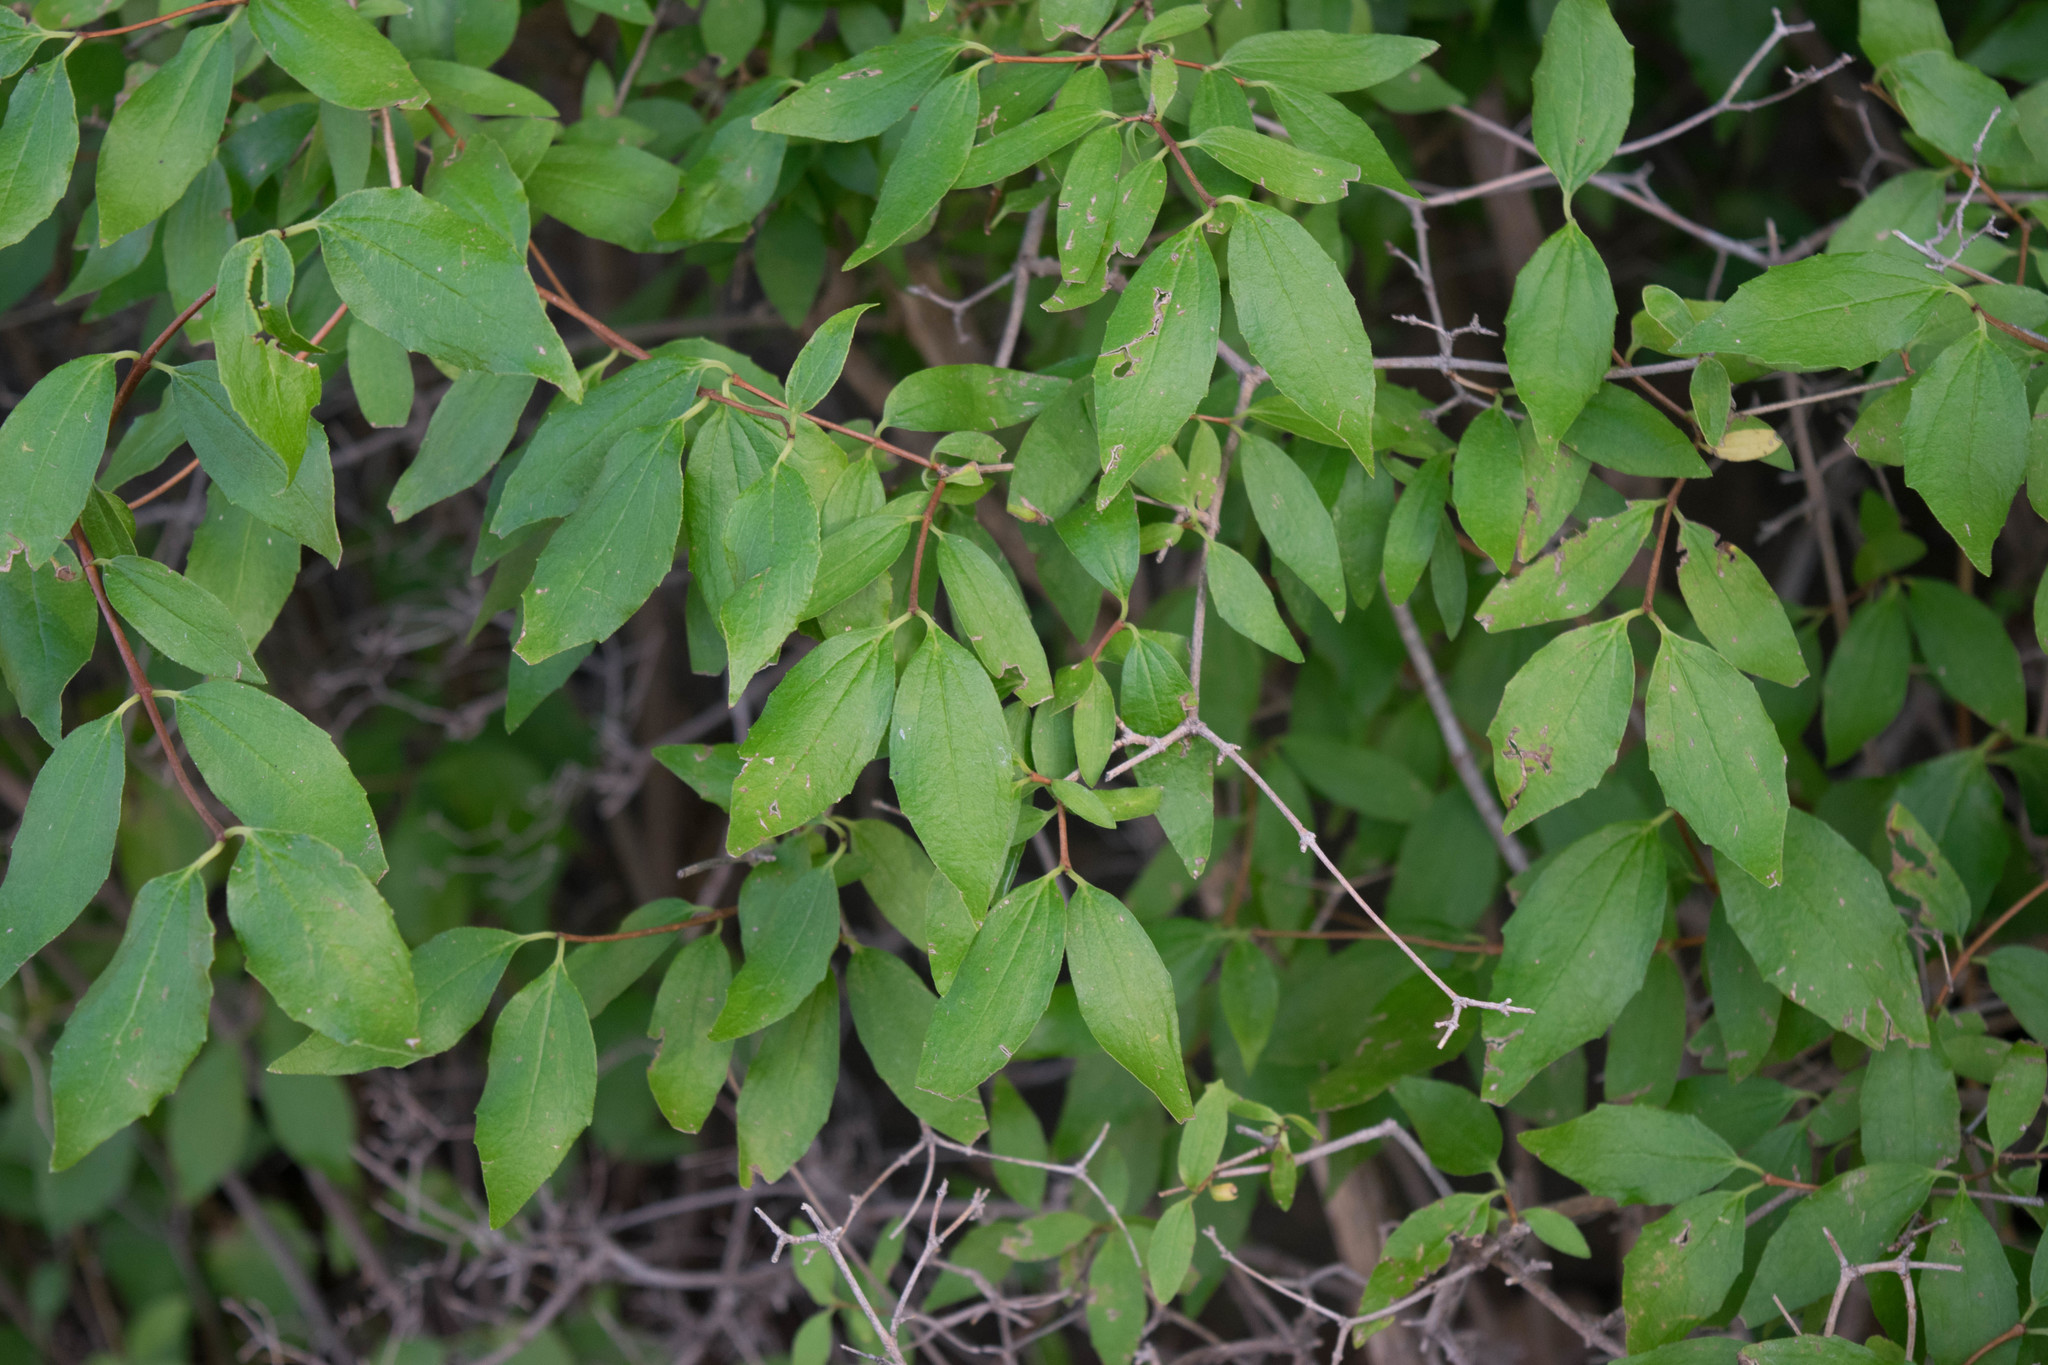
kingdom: Plantae
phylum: Tracheophyta
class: Magnoliopsida
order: Cornales
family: Cornaceae
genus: Cornus
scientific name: Cornus sericea
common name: Red-osier dogwood
